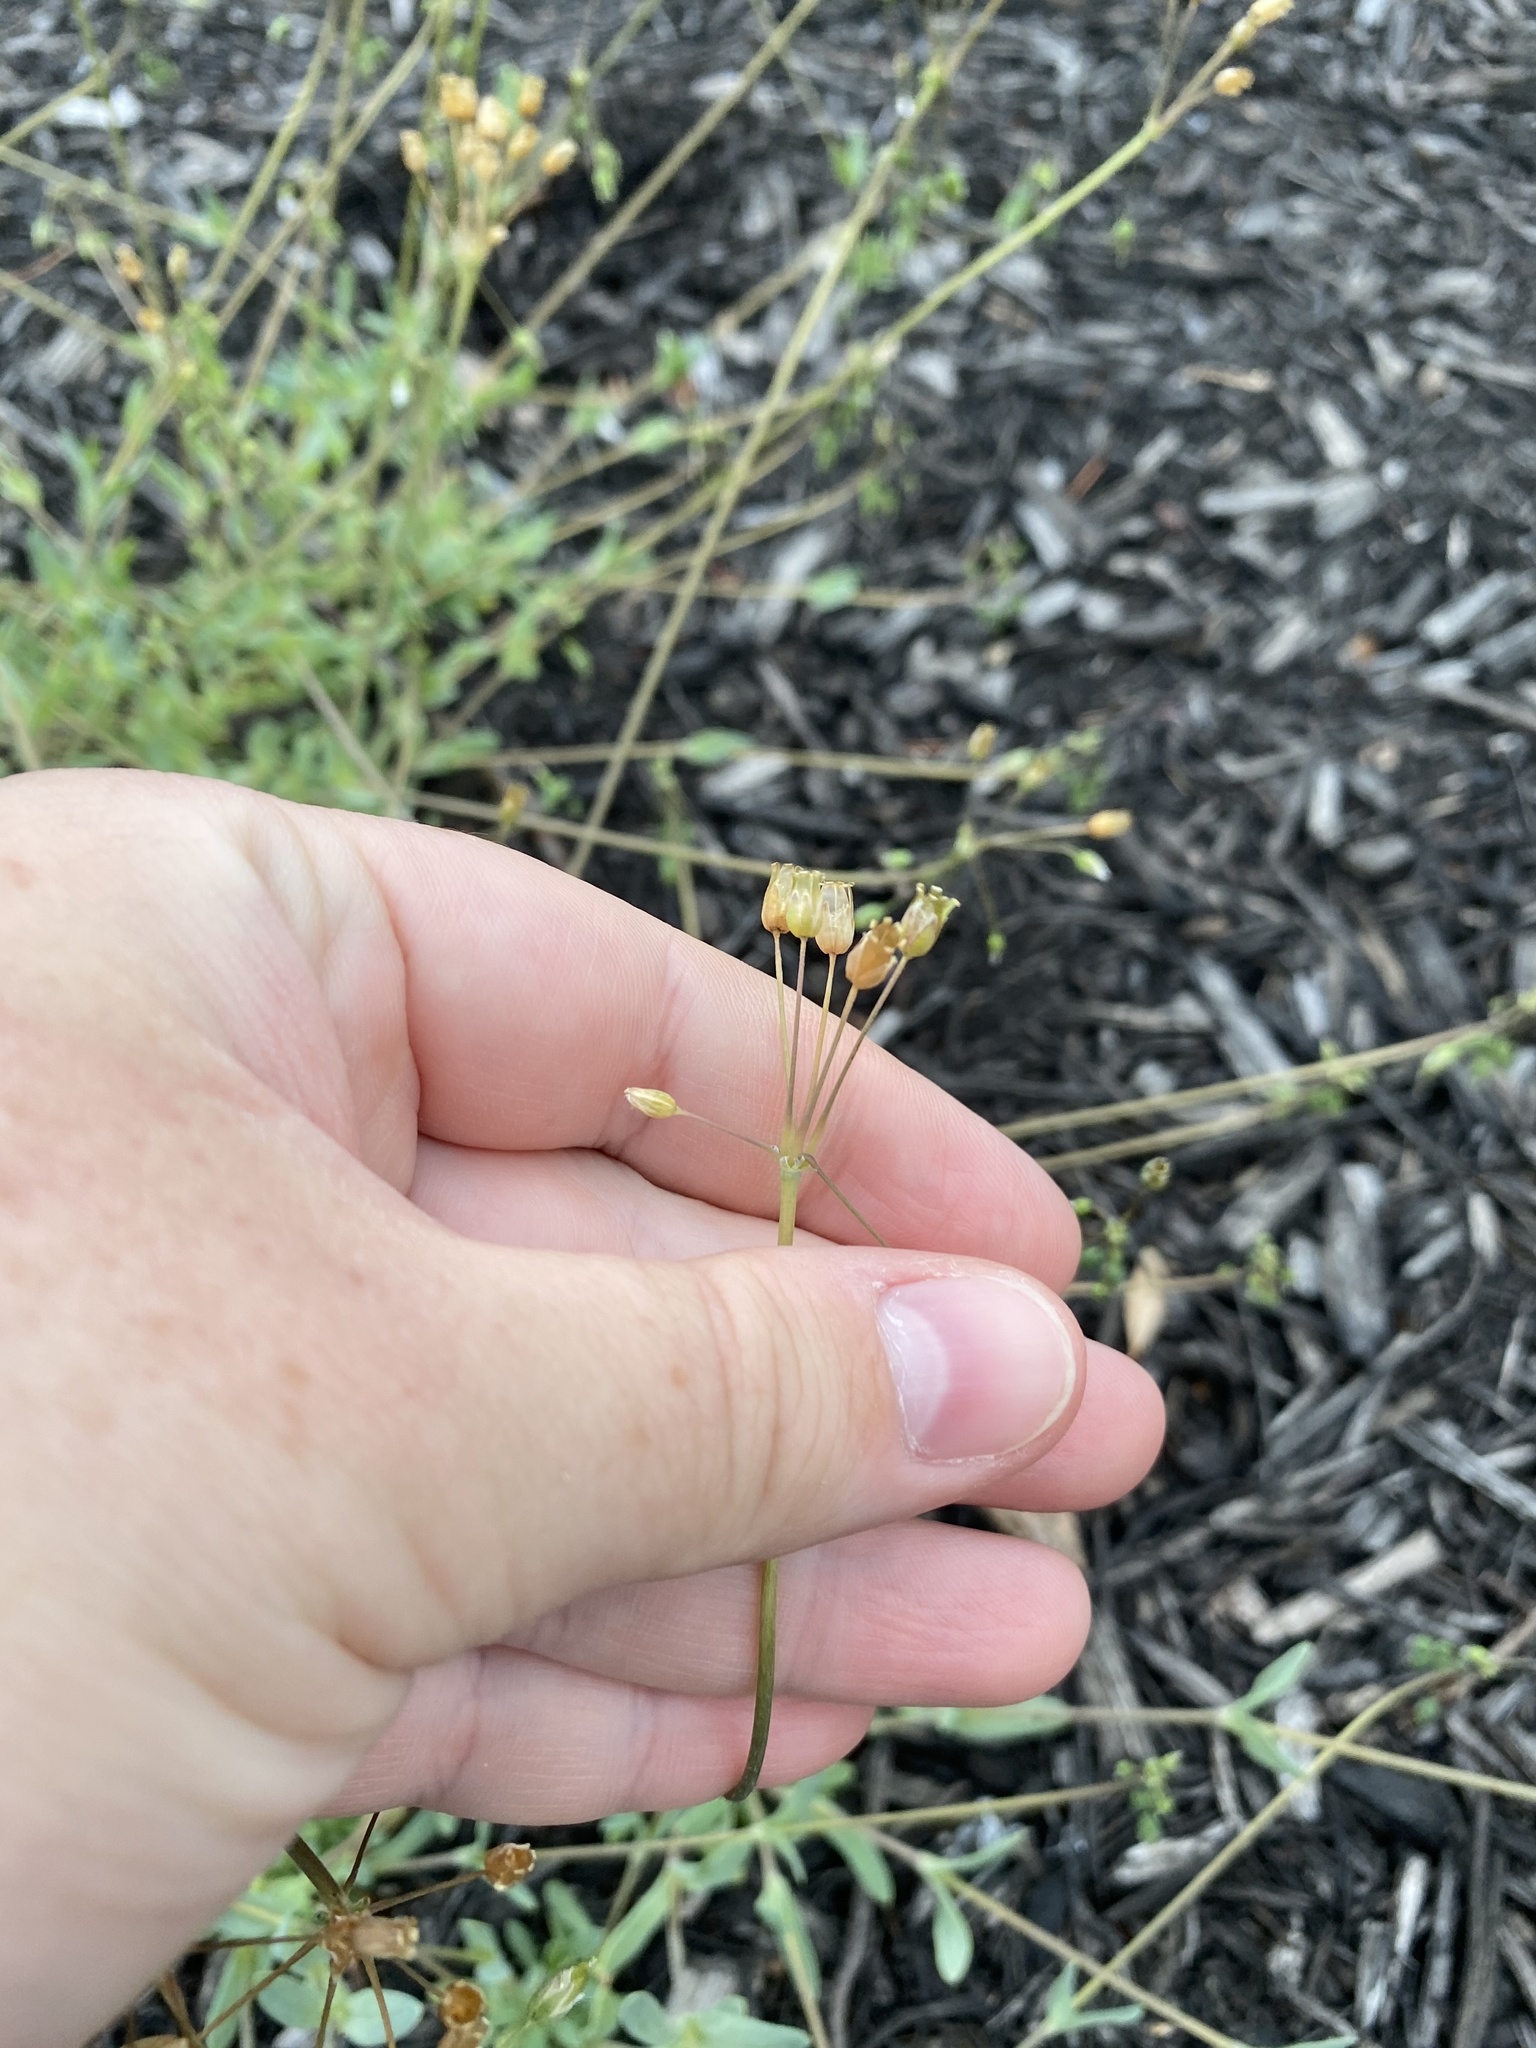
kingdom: Plantae
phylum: Tracheophyta
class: Magnoliopsida
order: Caryophyllales
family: Caryophyllaceae
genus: Holosteum
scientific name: Holosteum umbellatum
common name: Jagged chickweed
